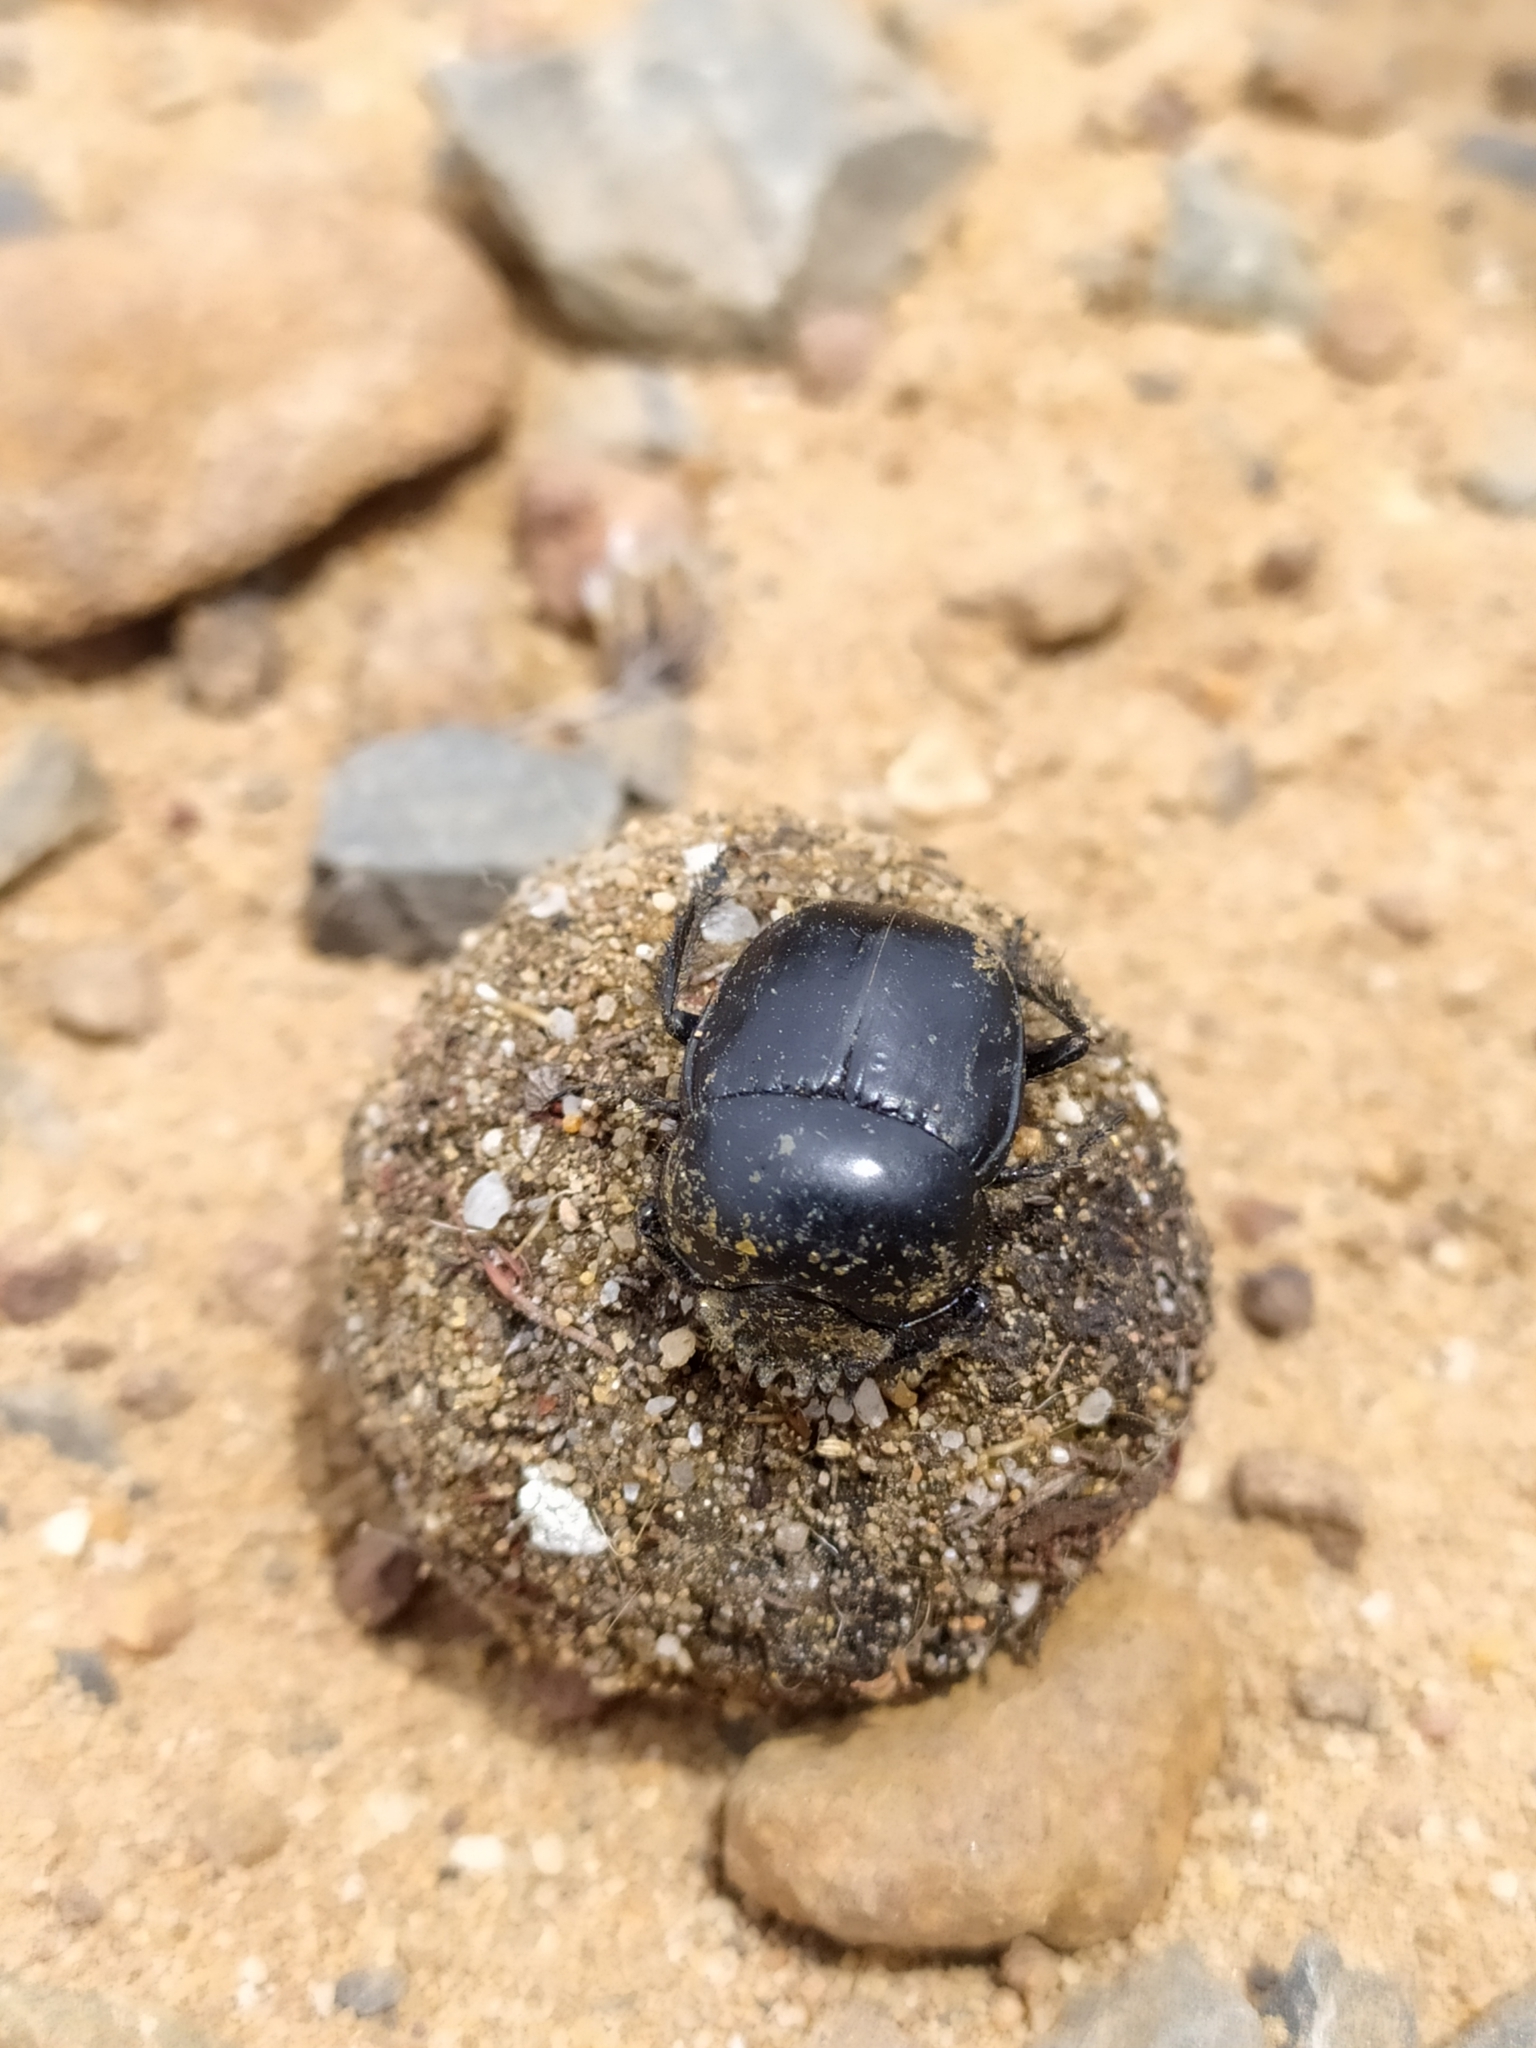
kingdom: Animalia
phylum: Arthropoda
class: Insecta
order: Coleoptera
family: Scarabaeidae
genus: Scarabaeus
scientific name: Scarabaeus convexus
